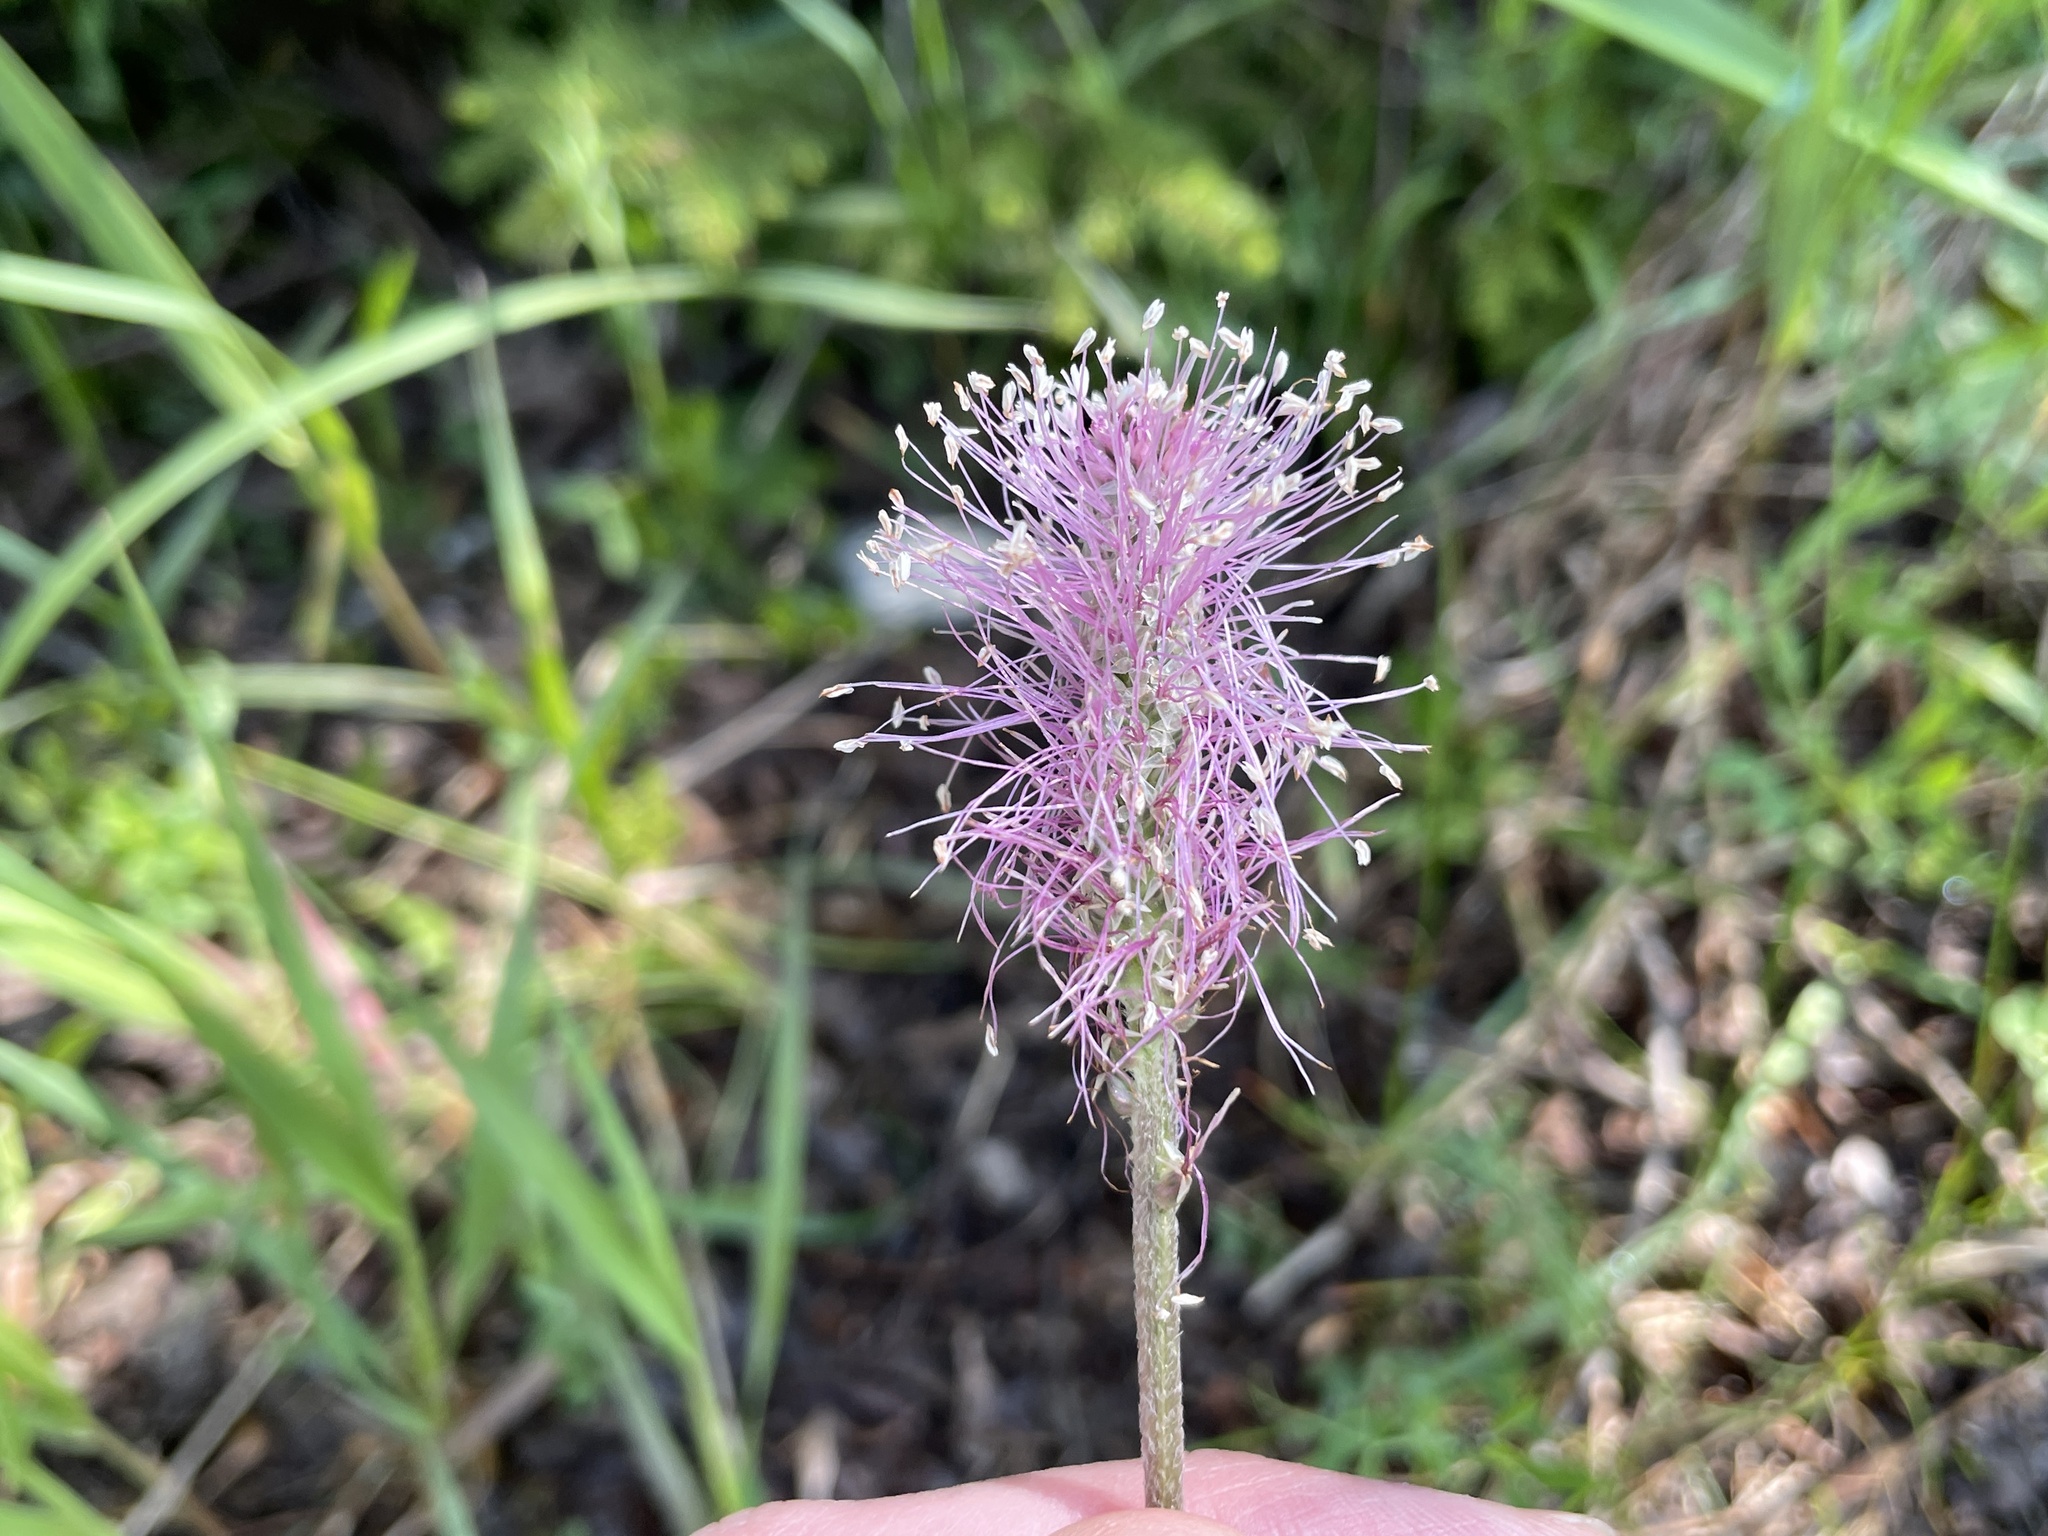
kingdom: Plantae
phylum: Tracheophyta
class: Magnoliopsida
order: Lamiales
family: Plantaginaceae
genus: Plantago
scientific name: Plantago media
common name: Hoary plantain
